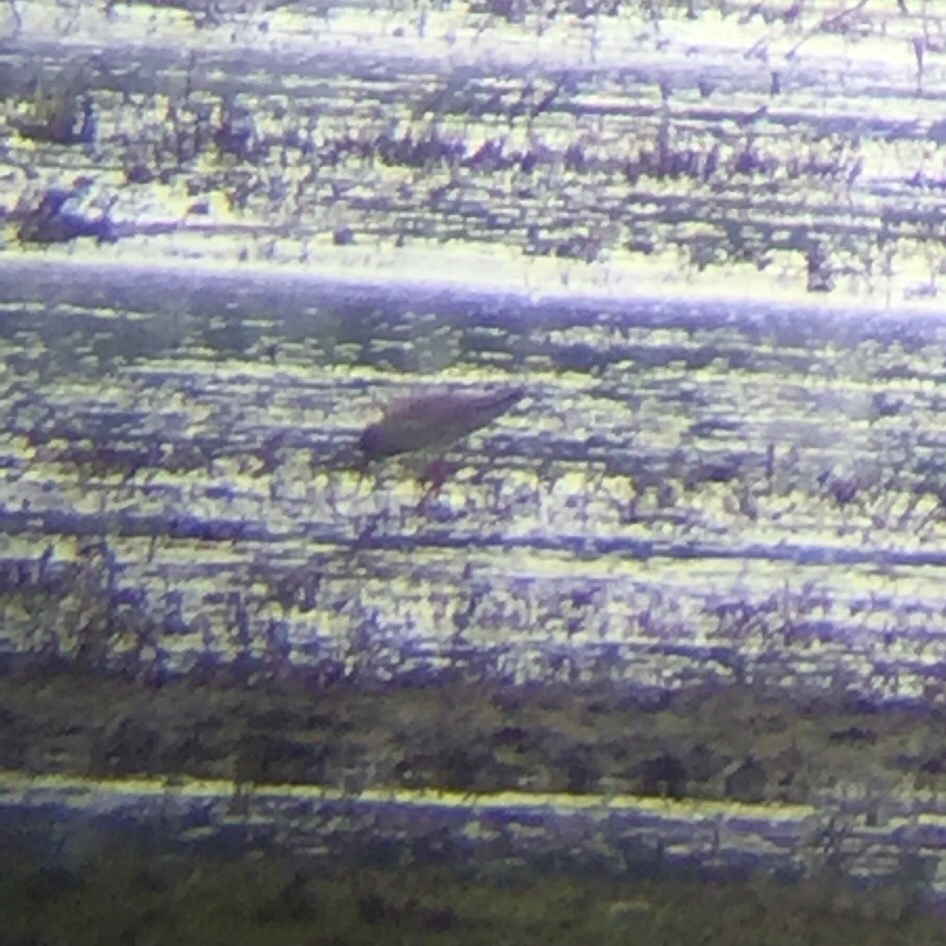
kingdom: Animalia
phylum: Chordata
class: Aves
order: Charadriiformes
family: Scolopacidae
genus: Tringa
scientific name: Tringa totanus
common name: Common redshank
